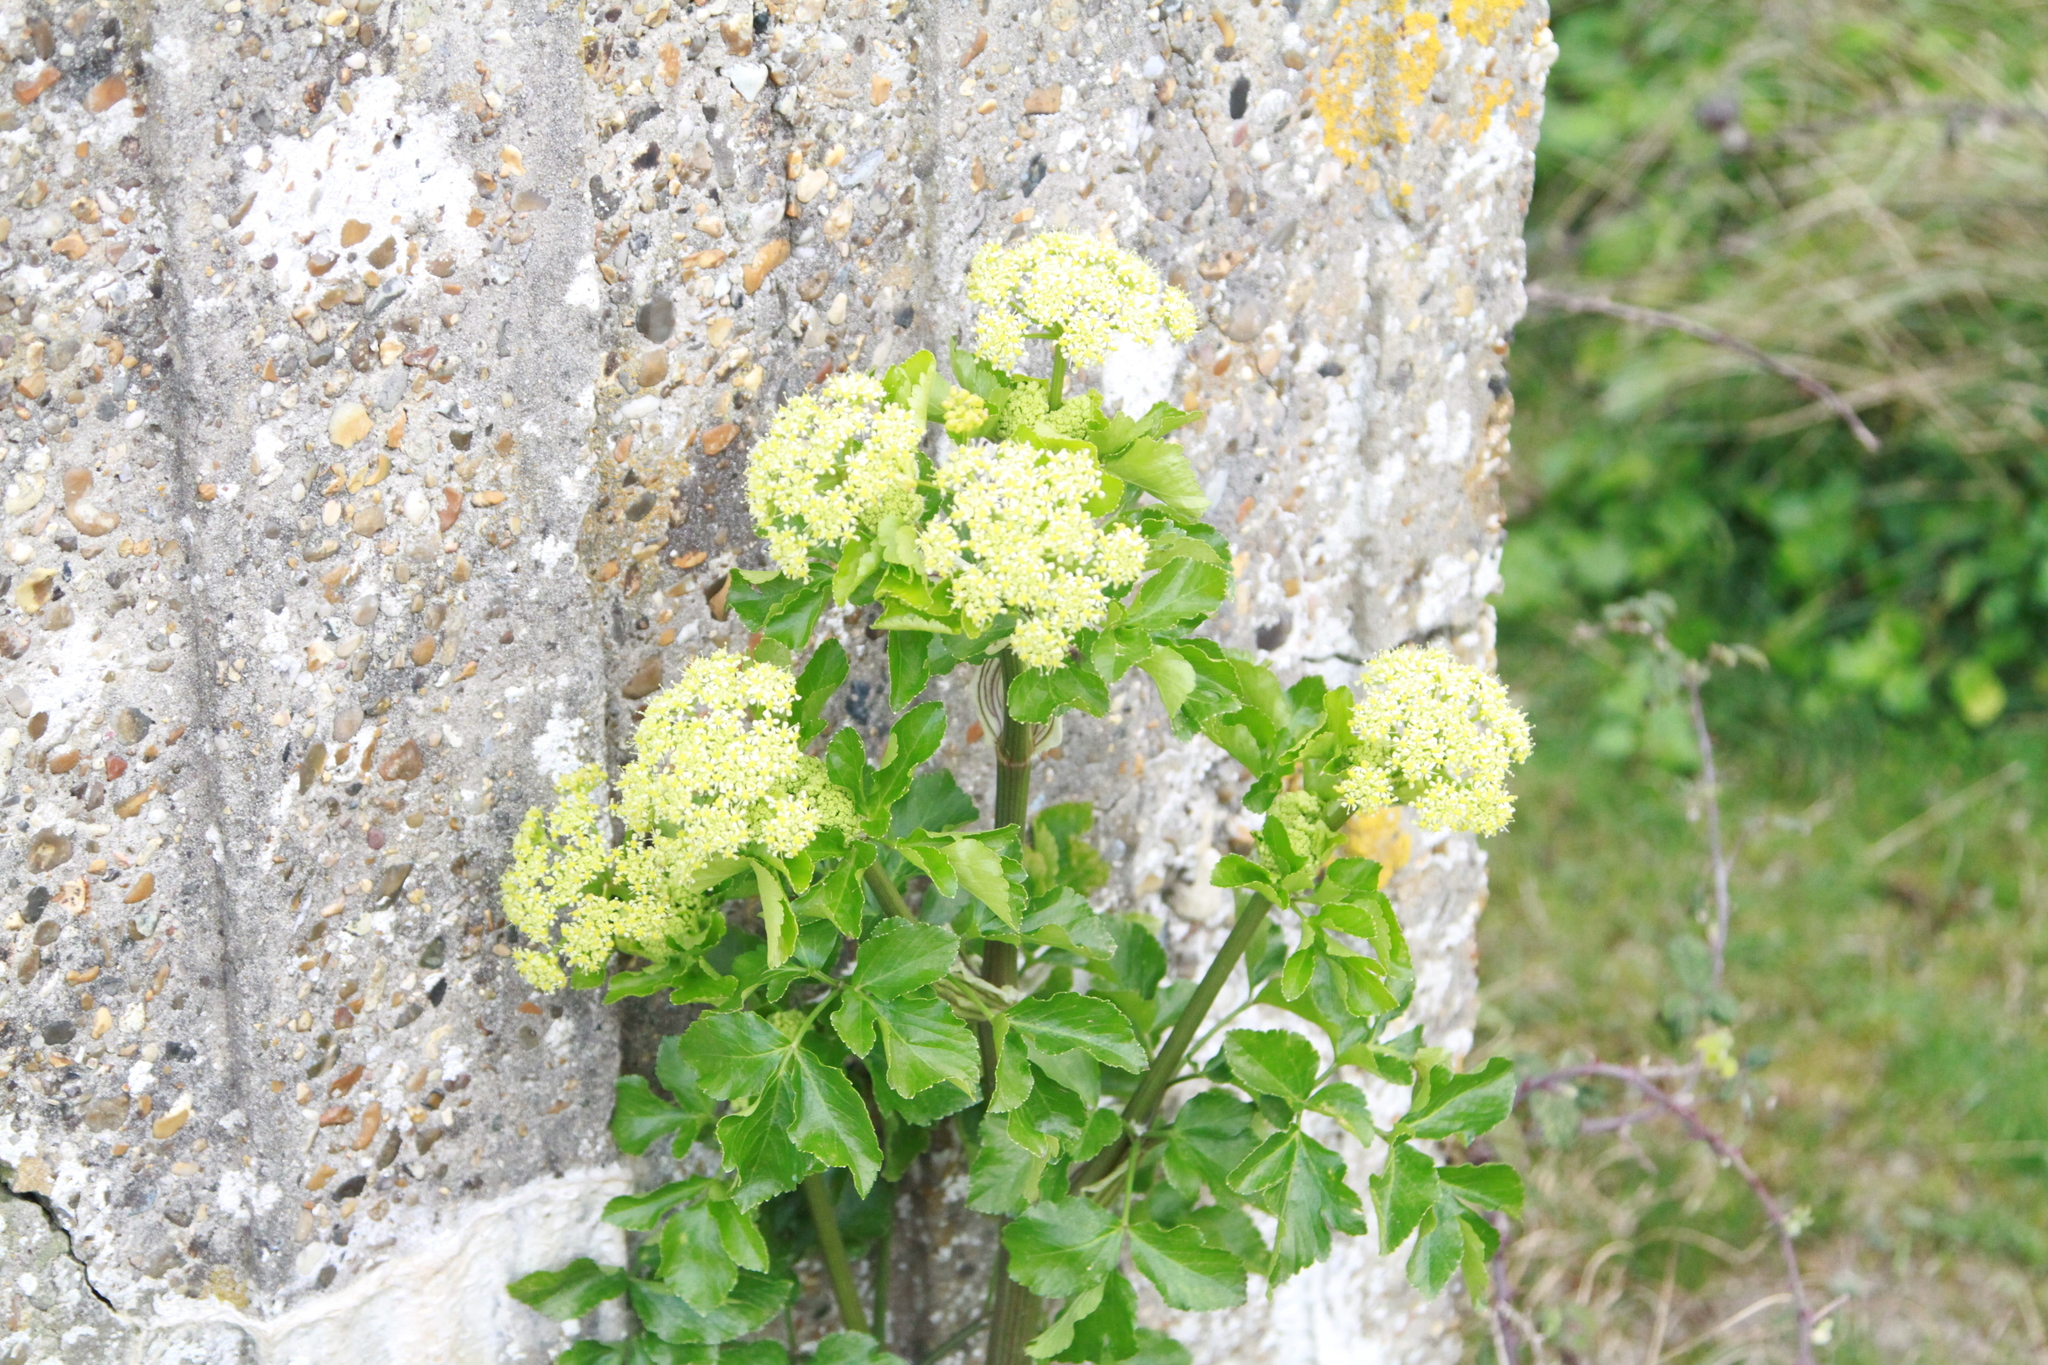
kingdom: Plantae
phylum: Tracheophyta
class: Magnoliopsida
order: Apiales
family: Apiaceae
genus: Smyrnium
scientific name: Smyrnium olusatrum
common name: Alexanders
